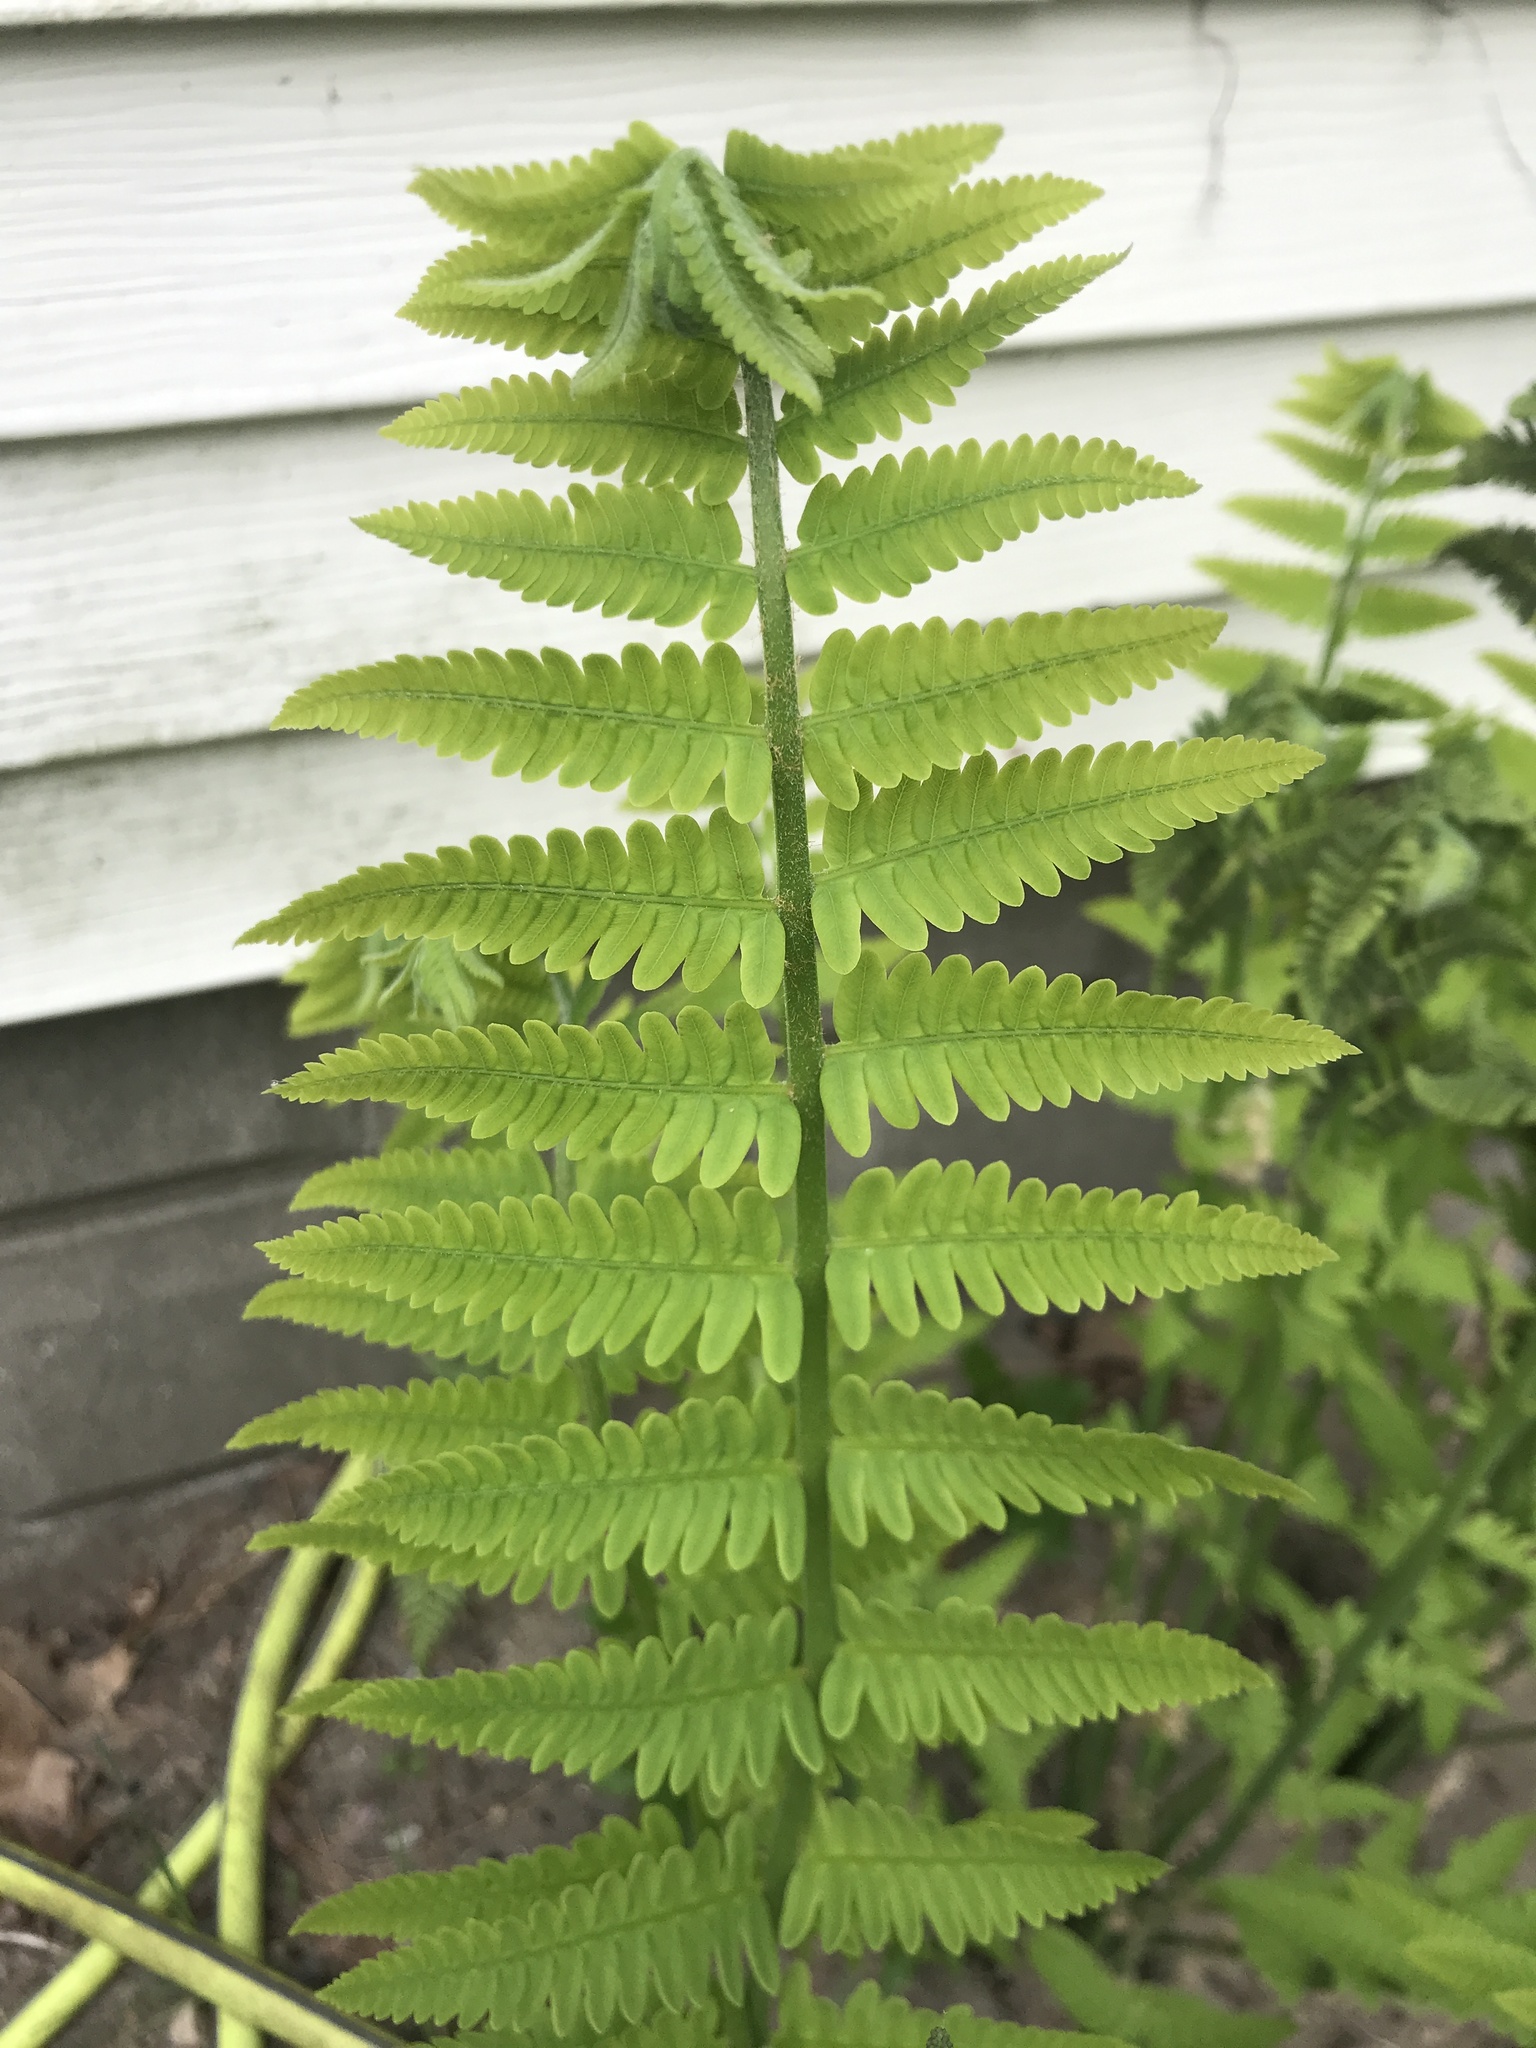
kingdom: Plantae
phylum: Tracheophyta
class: Polypodiopsida
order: Osmundales
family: Osmundaceae
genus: Claytosmunda
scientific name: Claytosmunda claytoniana
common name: Clayton's fern
